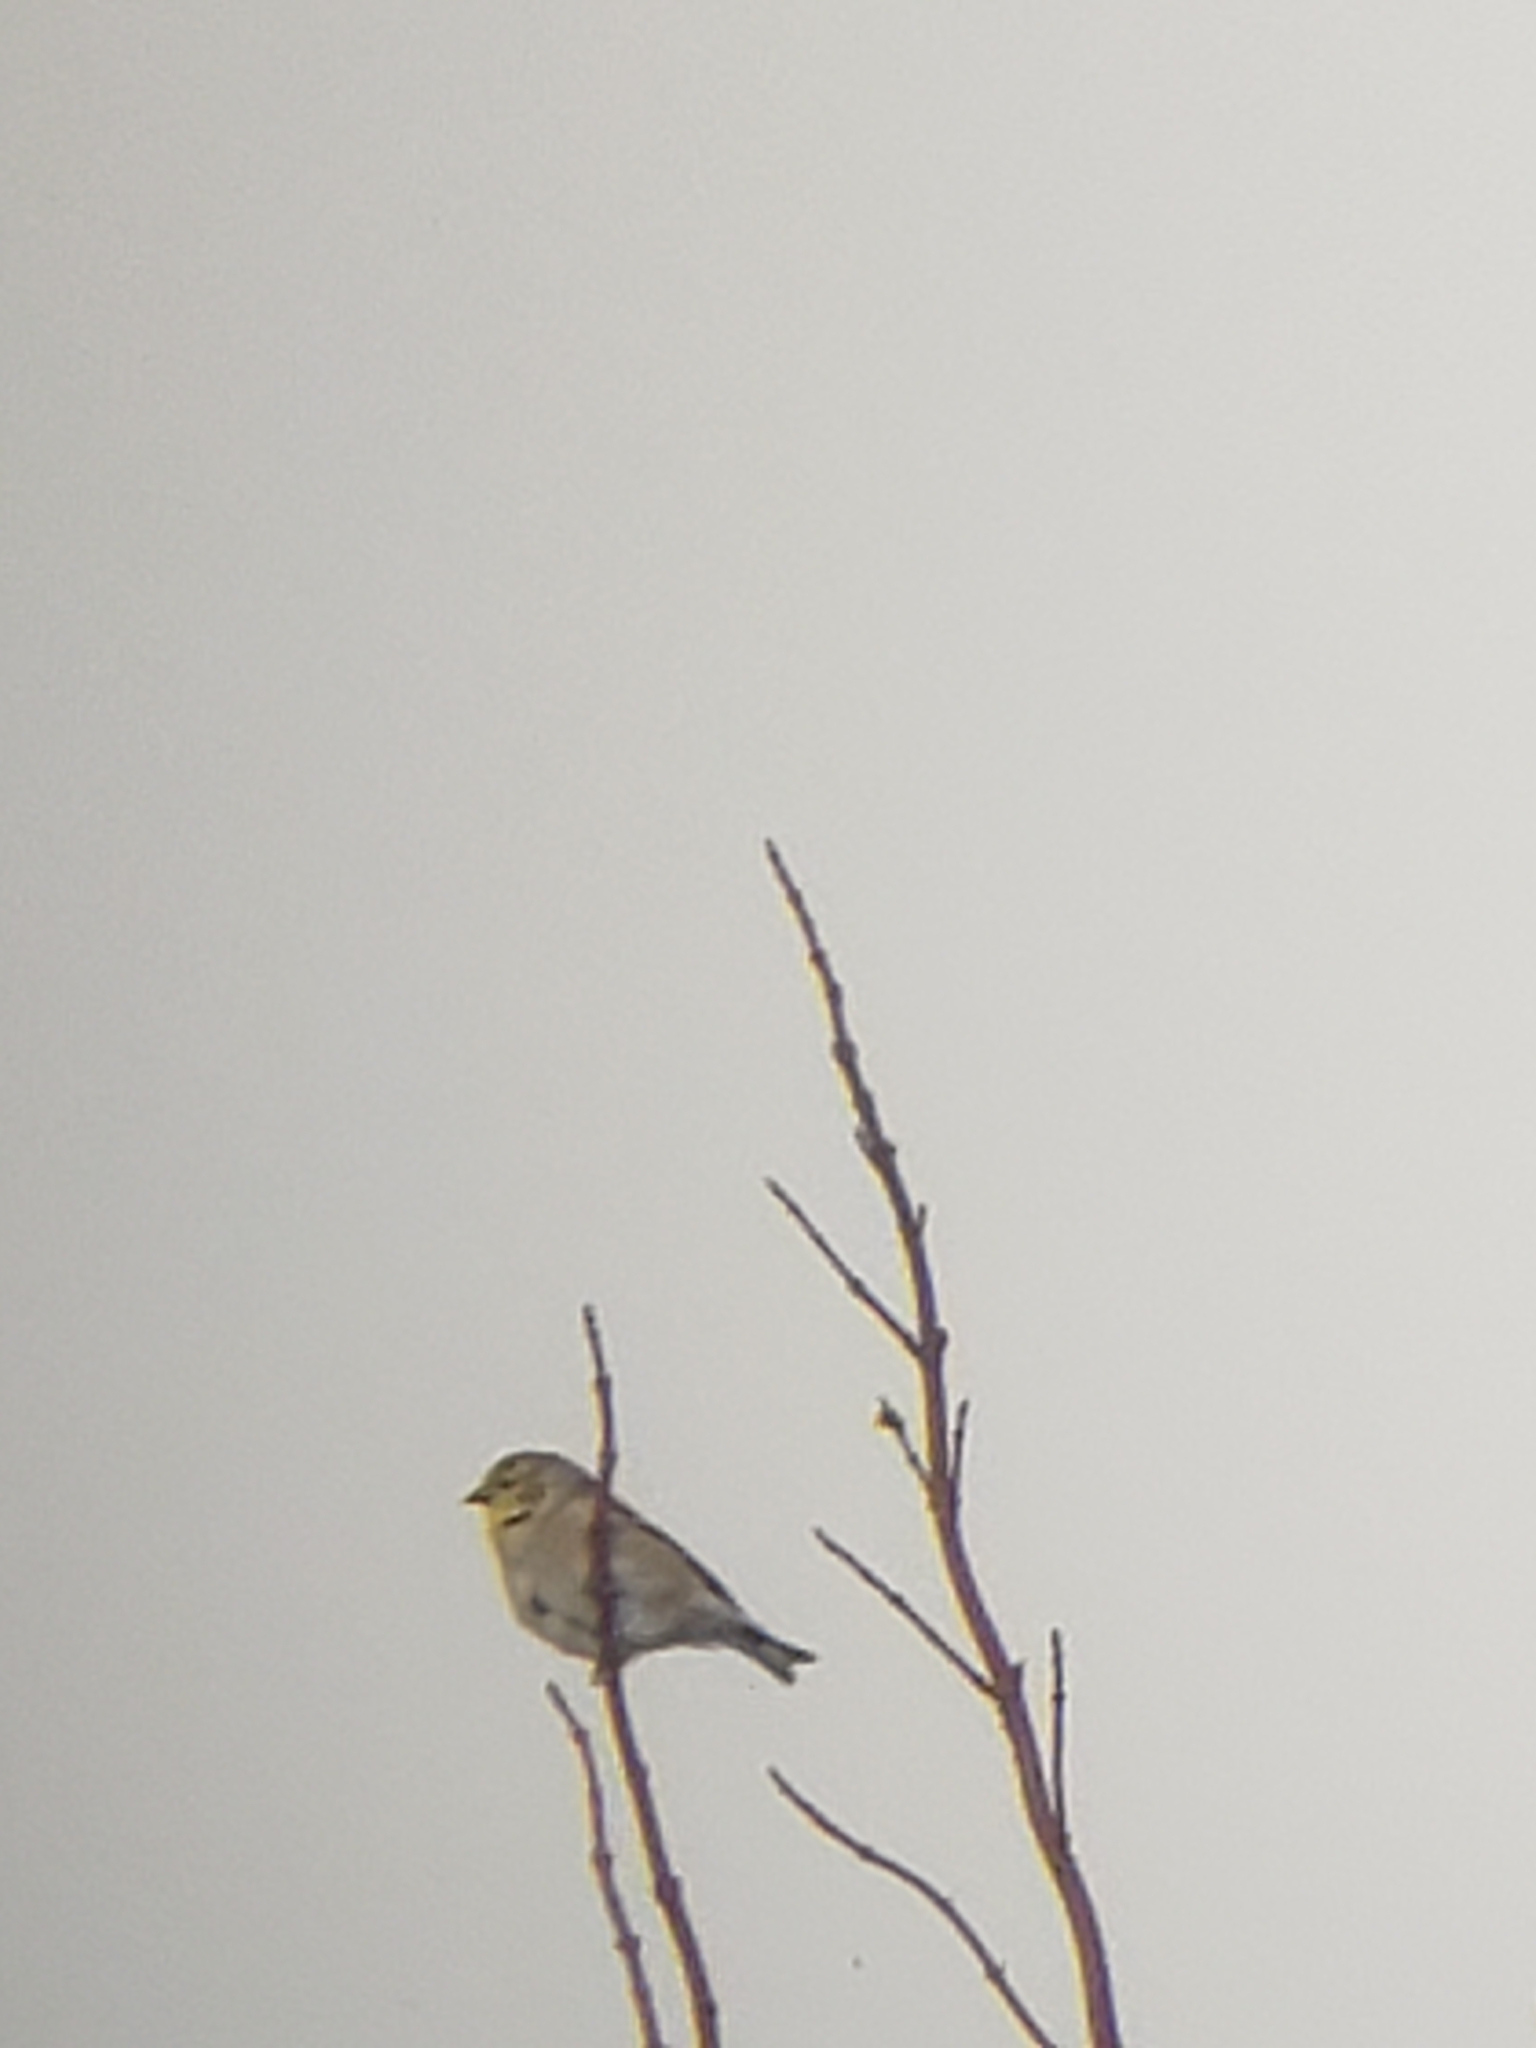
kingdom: Animalia
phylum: Chordata
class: Aves
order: Passeriformes
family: Fringillidae
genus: Spinus
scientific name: Spinus tristis
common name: American goldfinch
